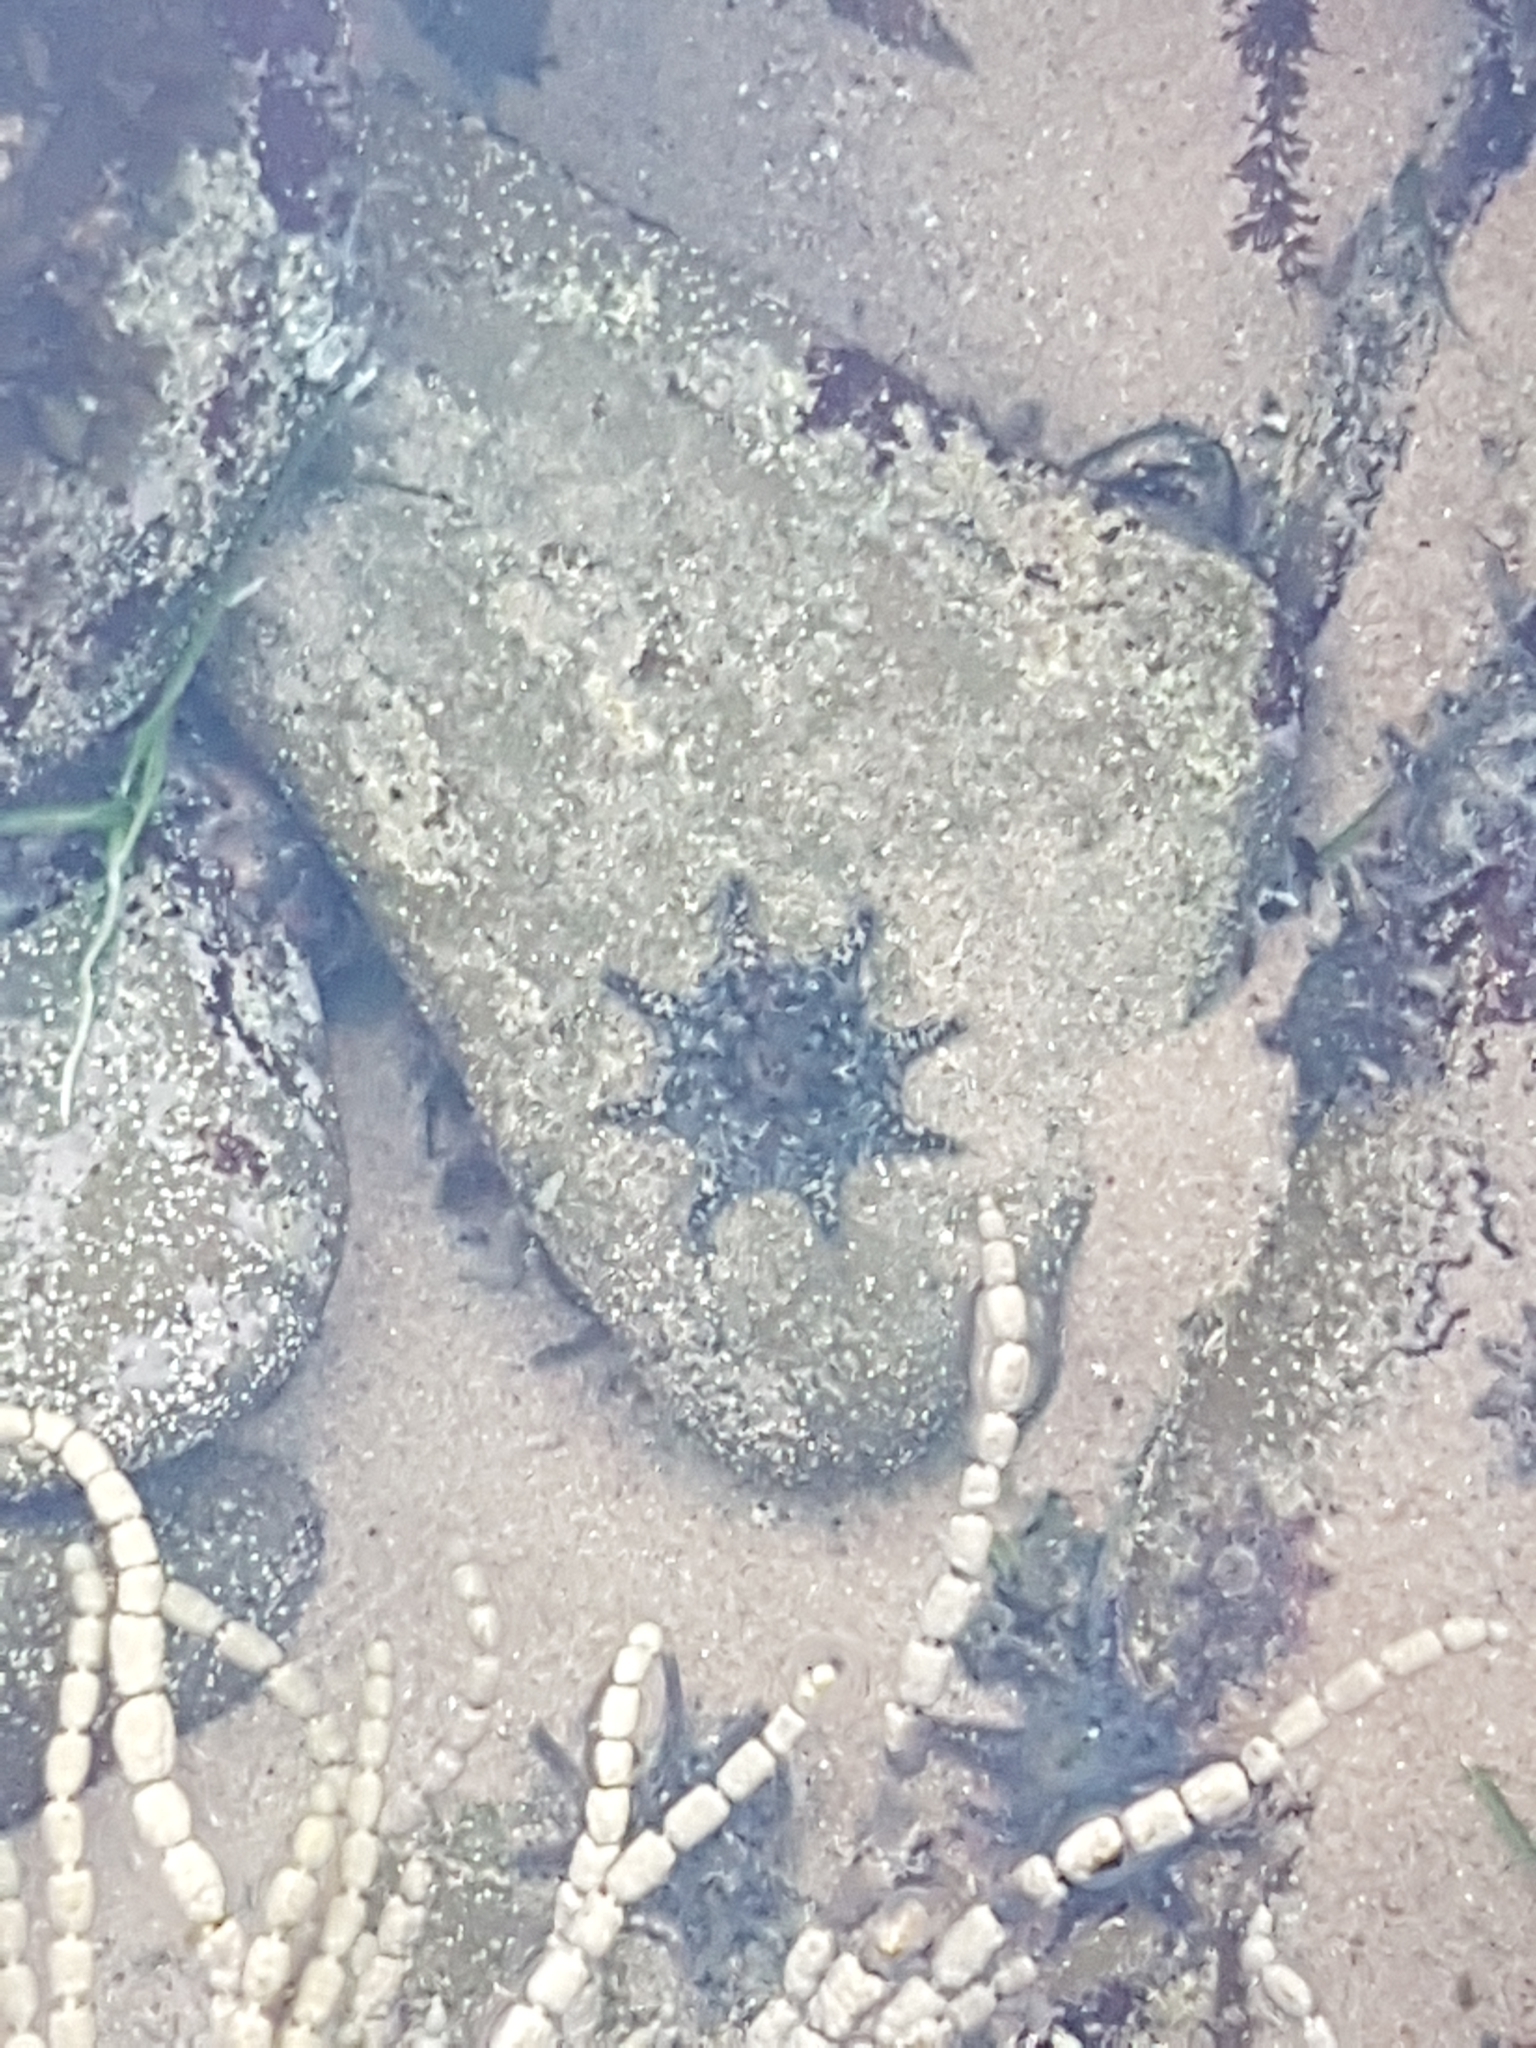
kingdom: Animalia
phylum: Echinodermata
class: Asteroidea
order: Valvatida
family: Asterinidae
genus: Meridiastra
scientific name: Meridiastra calcar
